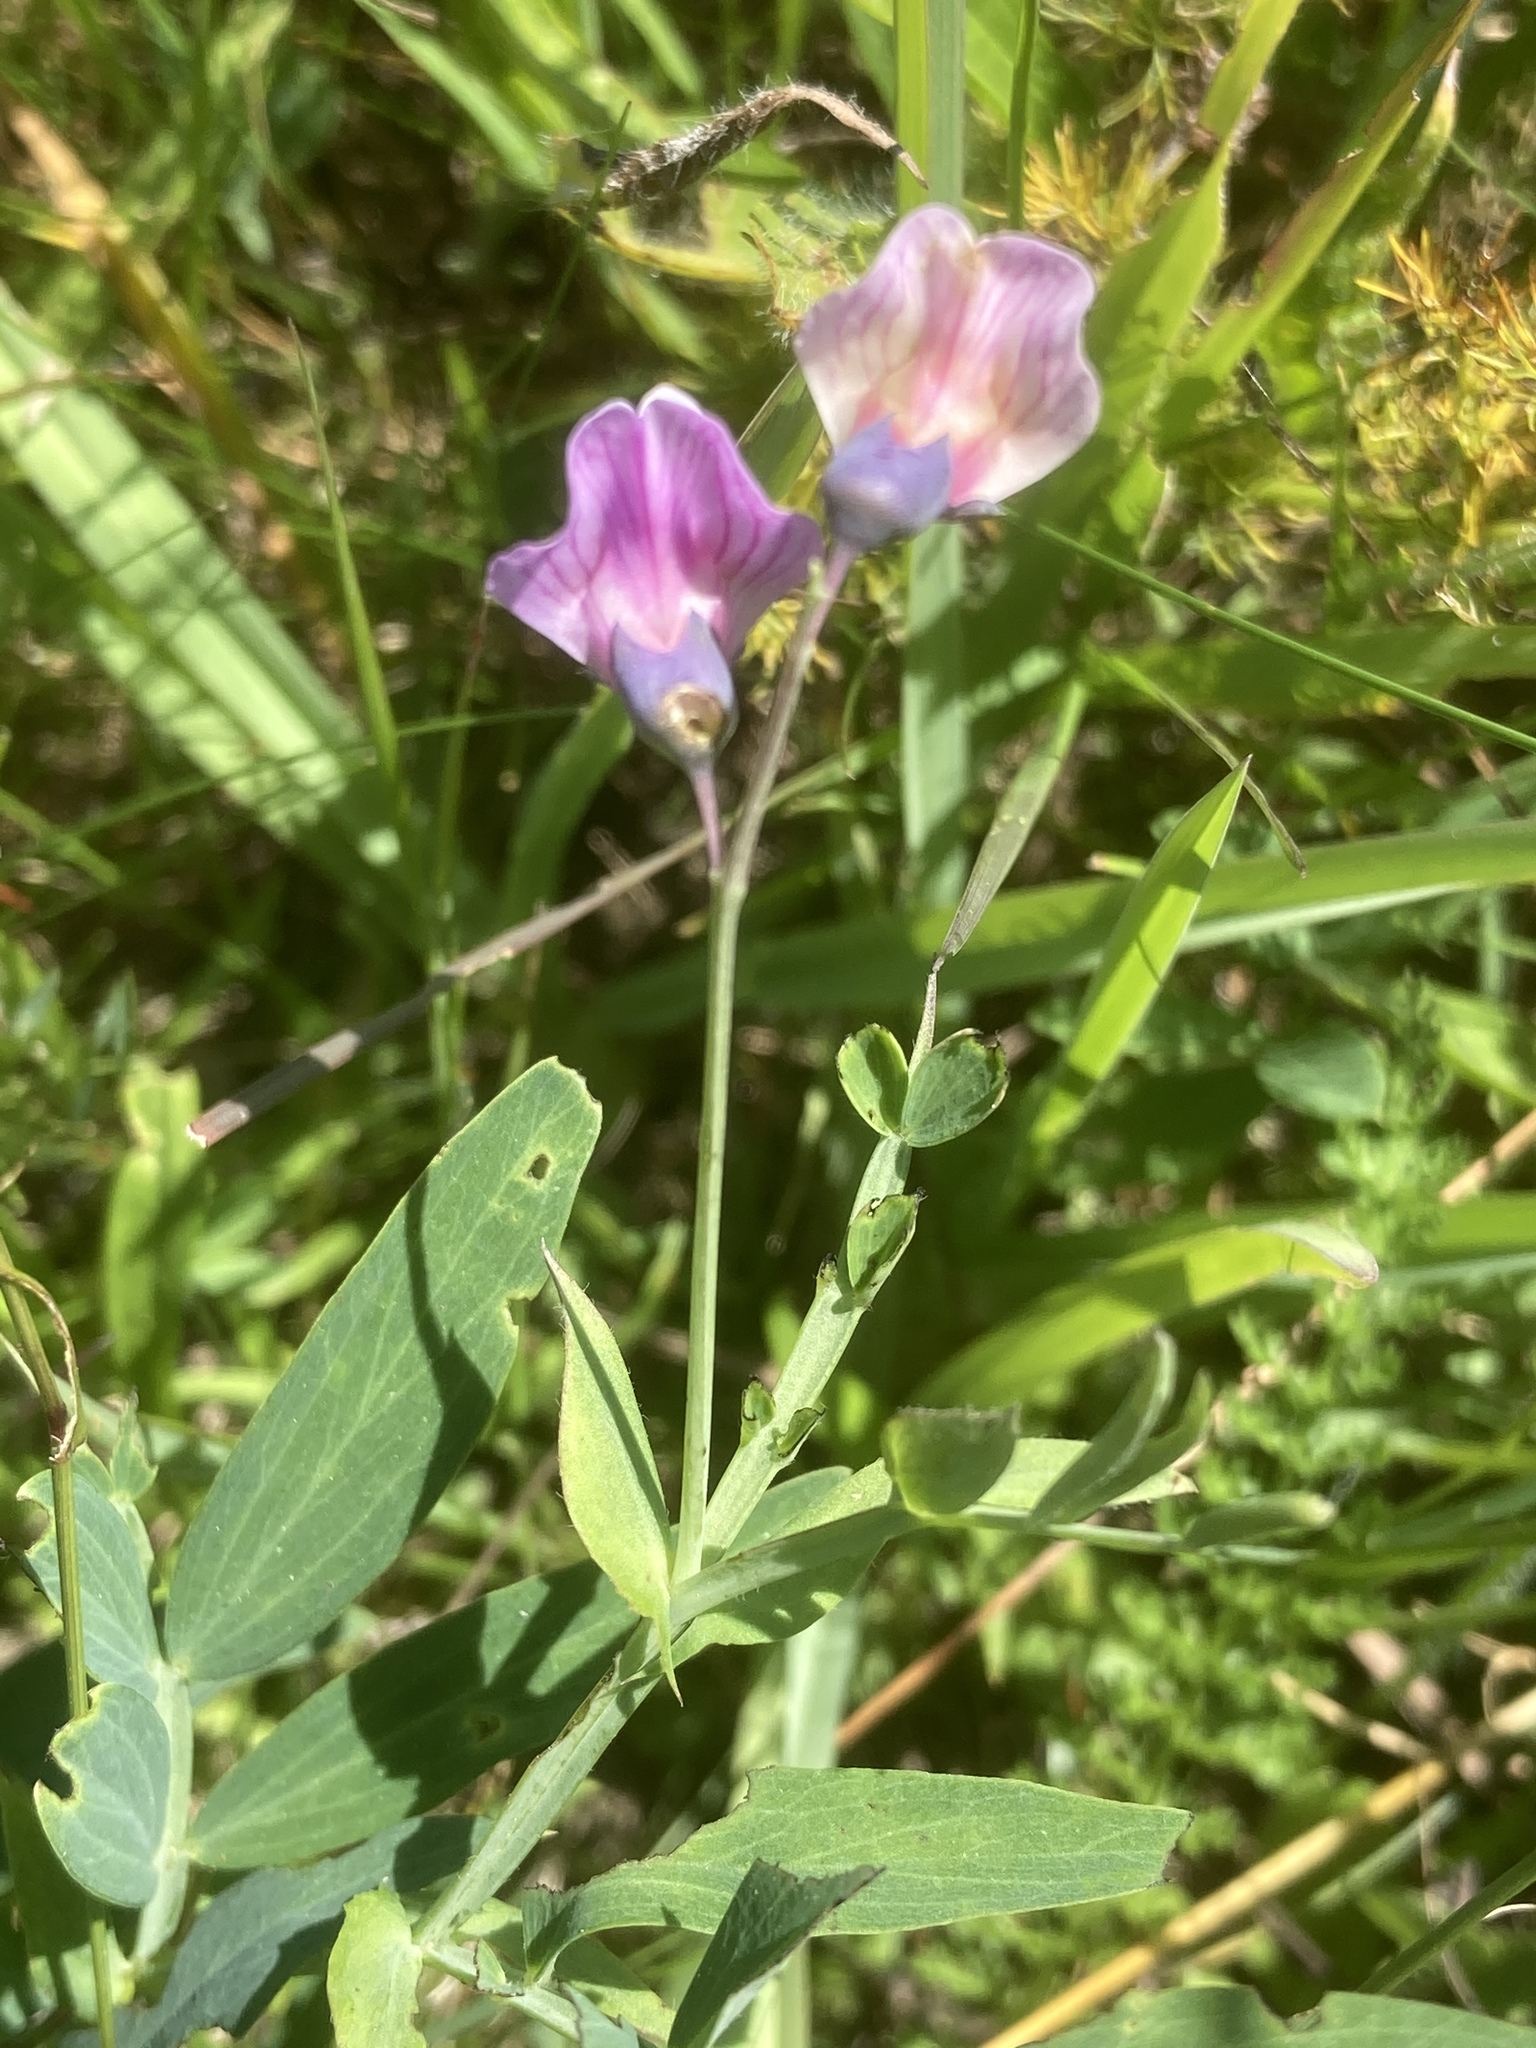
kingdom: Plantae
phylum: Tracheophyta
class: Magnoliopsida
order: Fabales
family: Fabaceae
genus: Lathyrus
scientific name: Lathyrus linifolius
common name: Bitter-vetch
